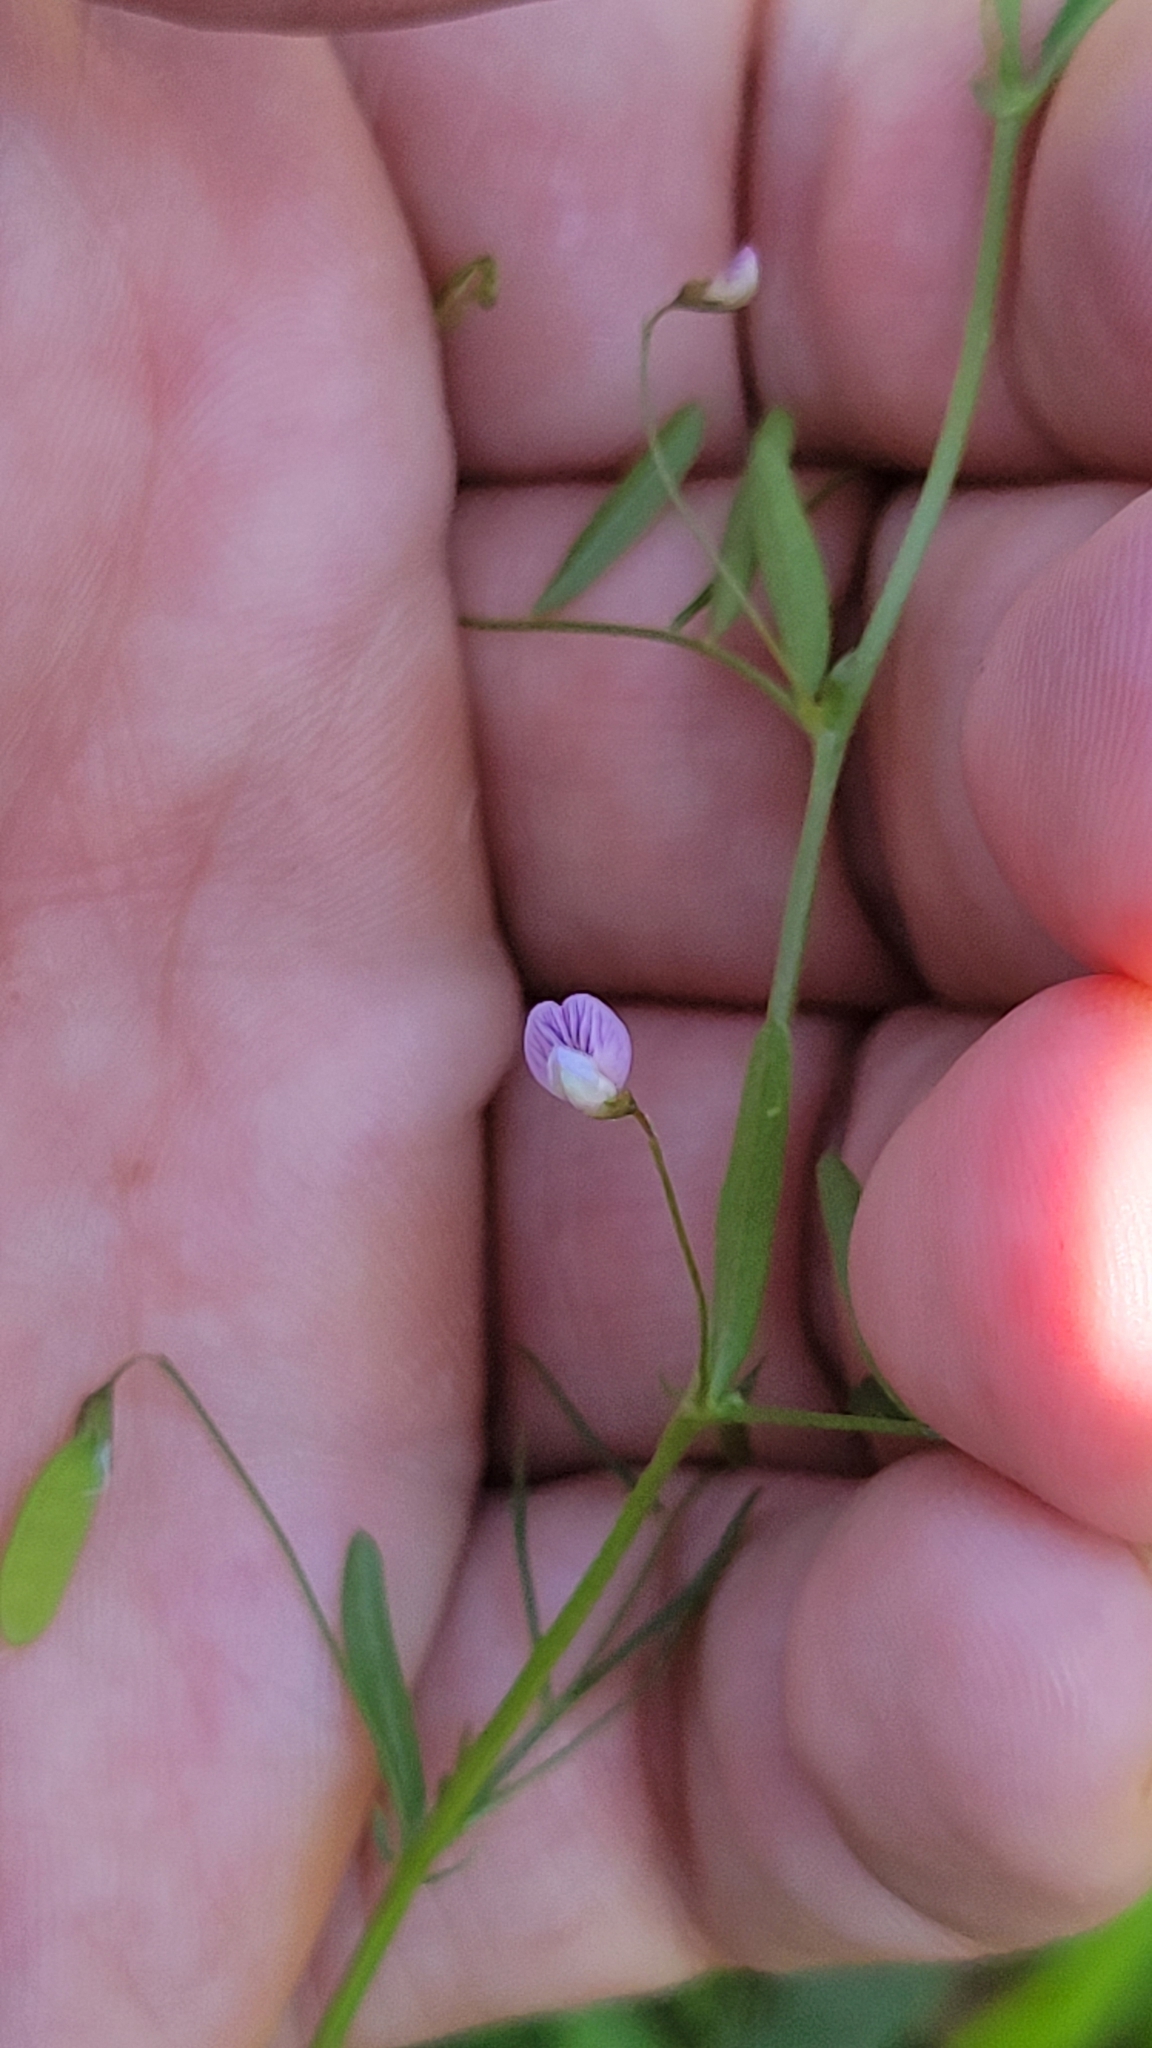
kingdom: Plantae
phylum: Tracheophyta
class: Magnoliopsida
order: Fabales
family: Fabaceae
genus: Vicia
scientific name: Vicia tetrasperma
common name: Smooth tare
